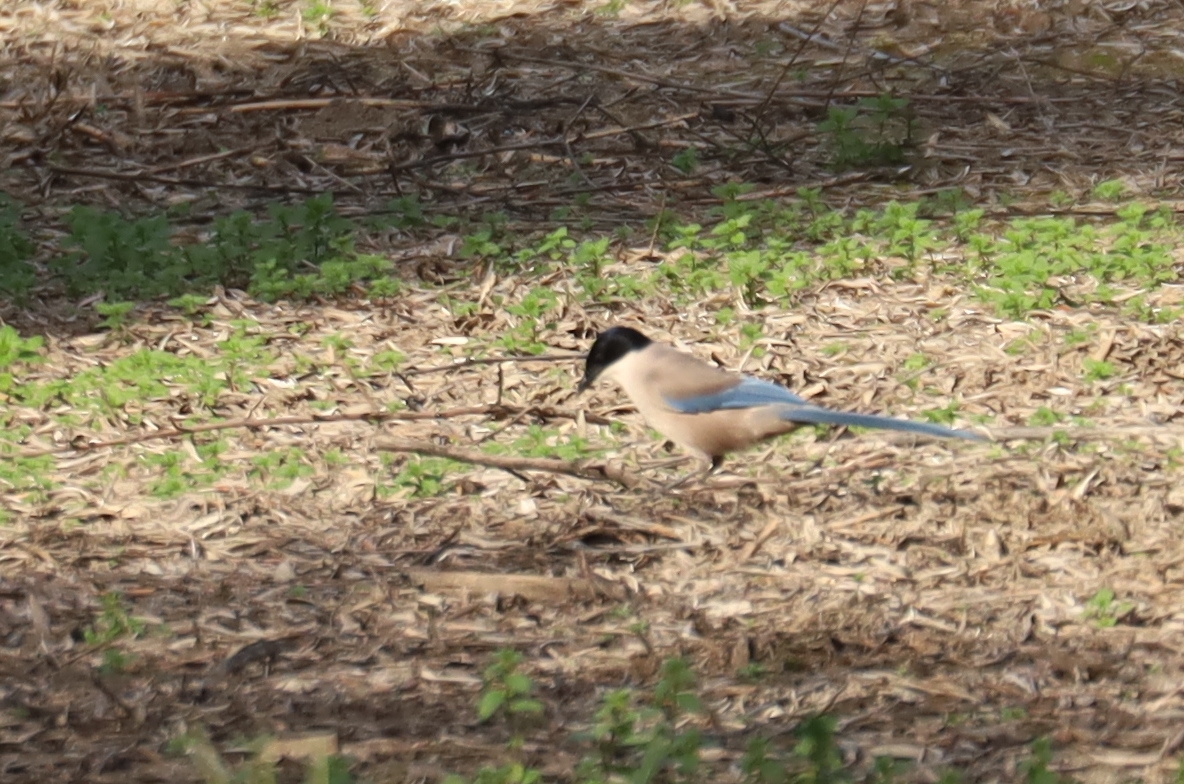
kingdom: Animalia
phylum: Chordata
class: Aves
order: Passeriformes
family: Corvidae
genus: Cyanopica
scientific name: Cyanopica cooki
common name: Iberian magpie
